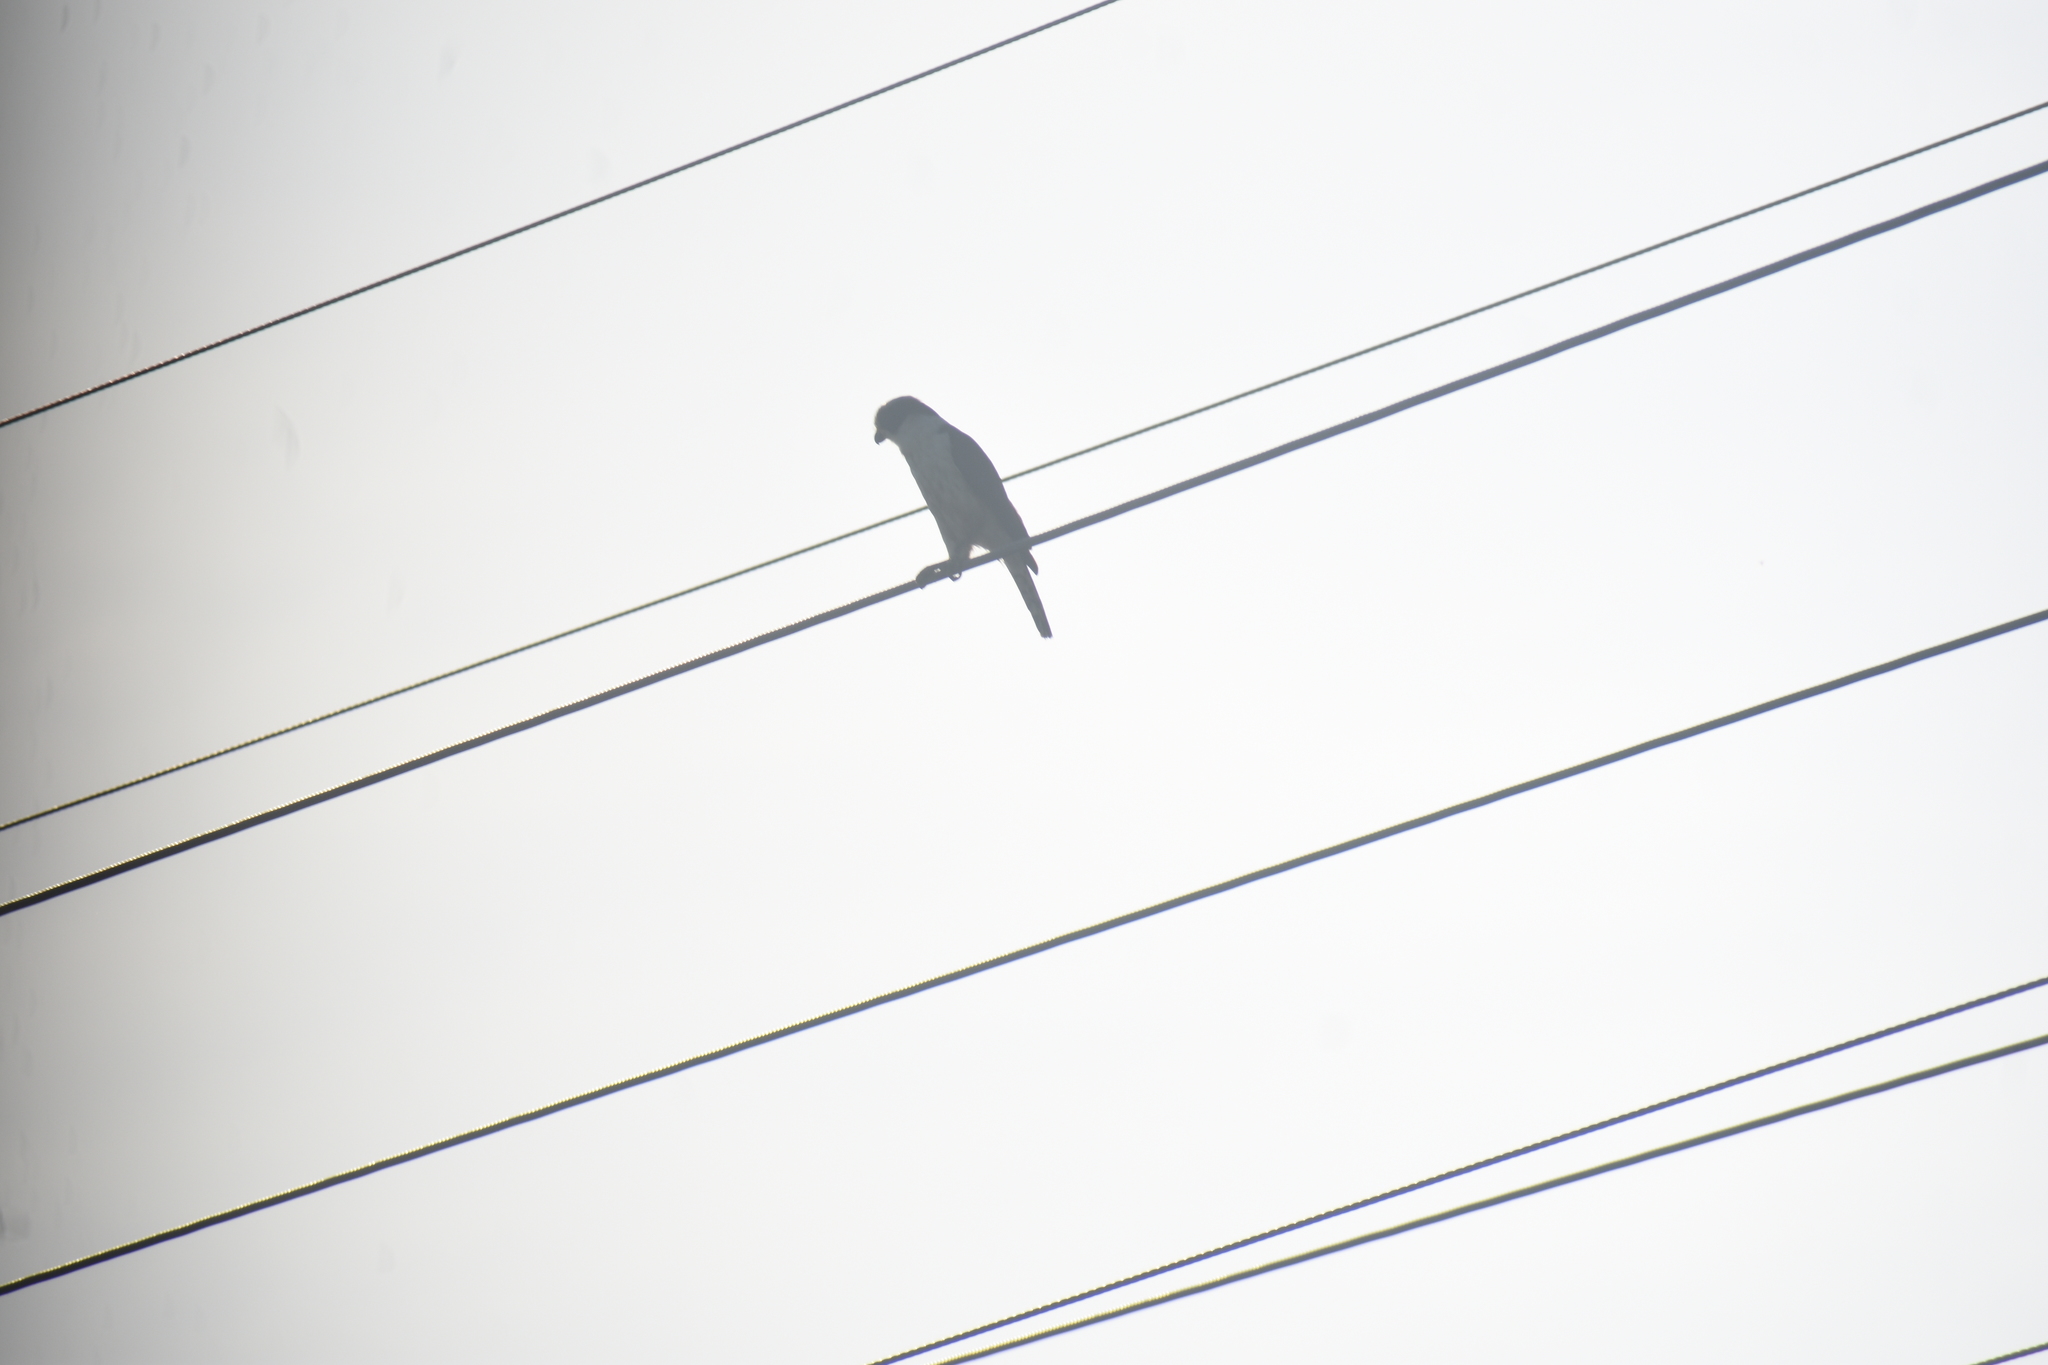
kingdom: Animalia
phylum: Chordata
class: Aves
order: Falconiformes
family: Falconidae
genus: Herpetotheres
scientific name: Herpetotheres cachinnans
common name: Laughing falcon
